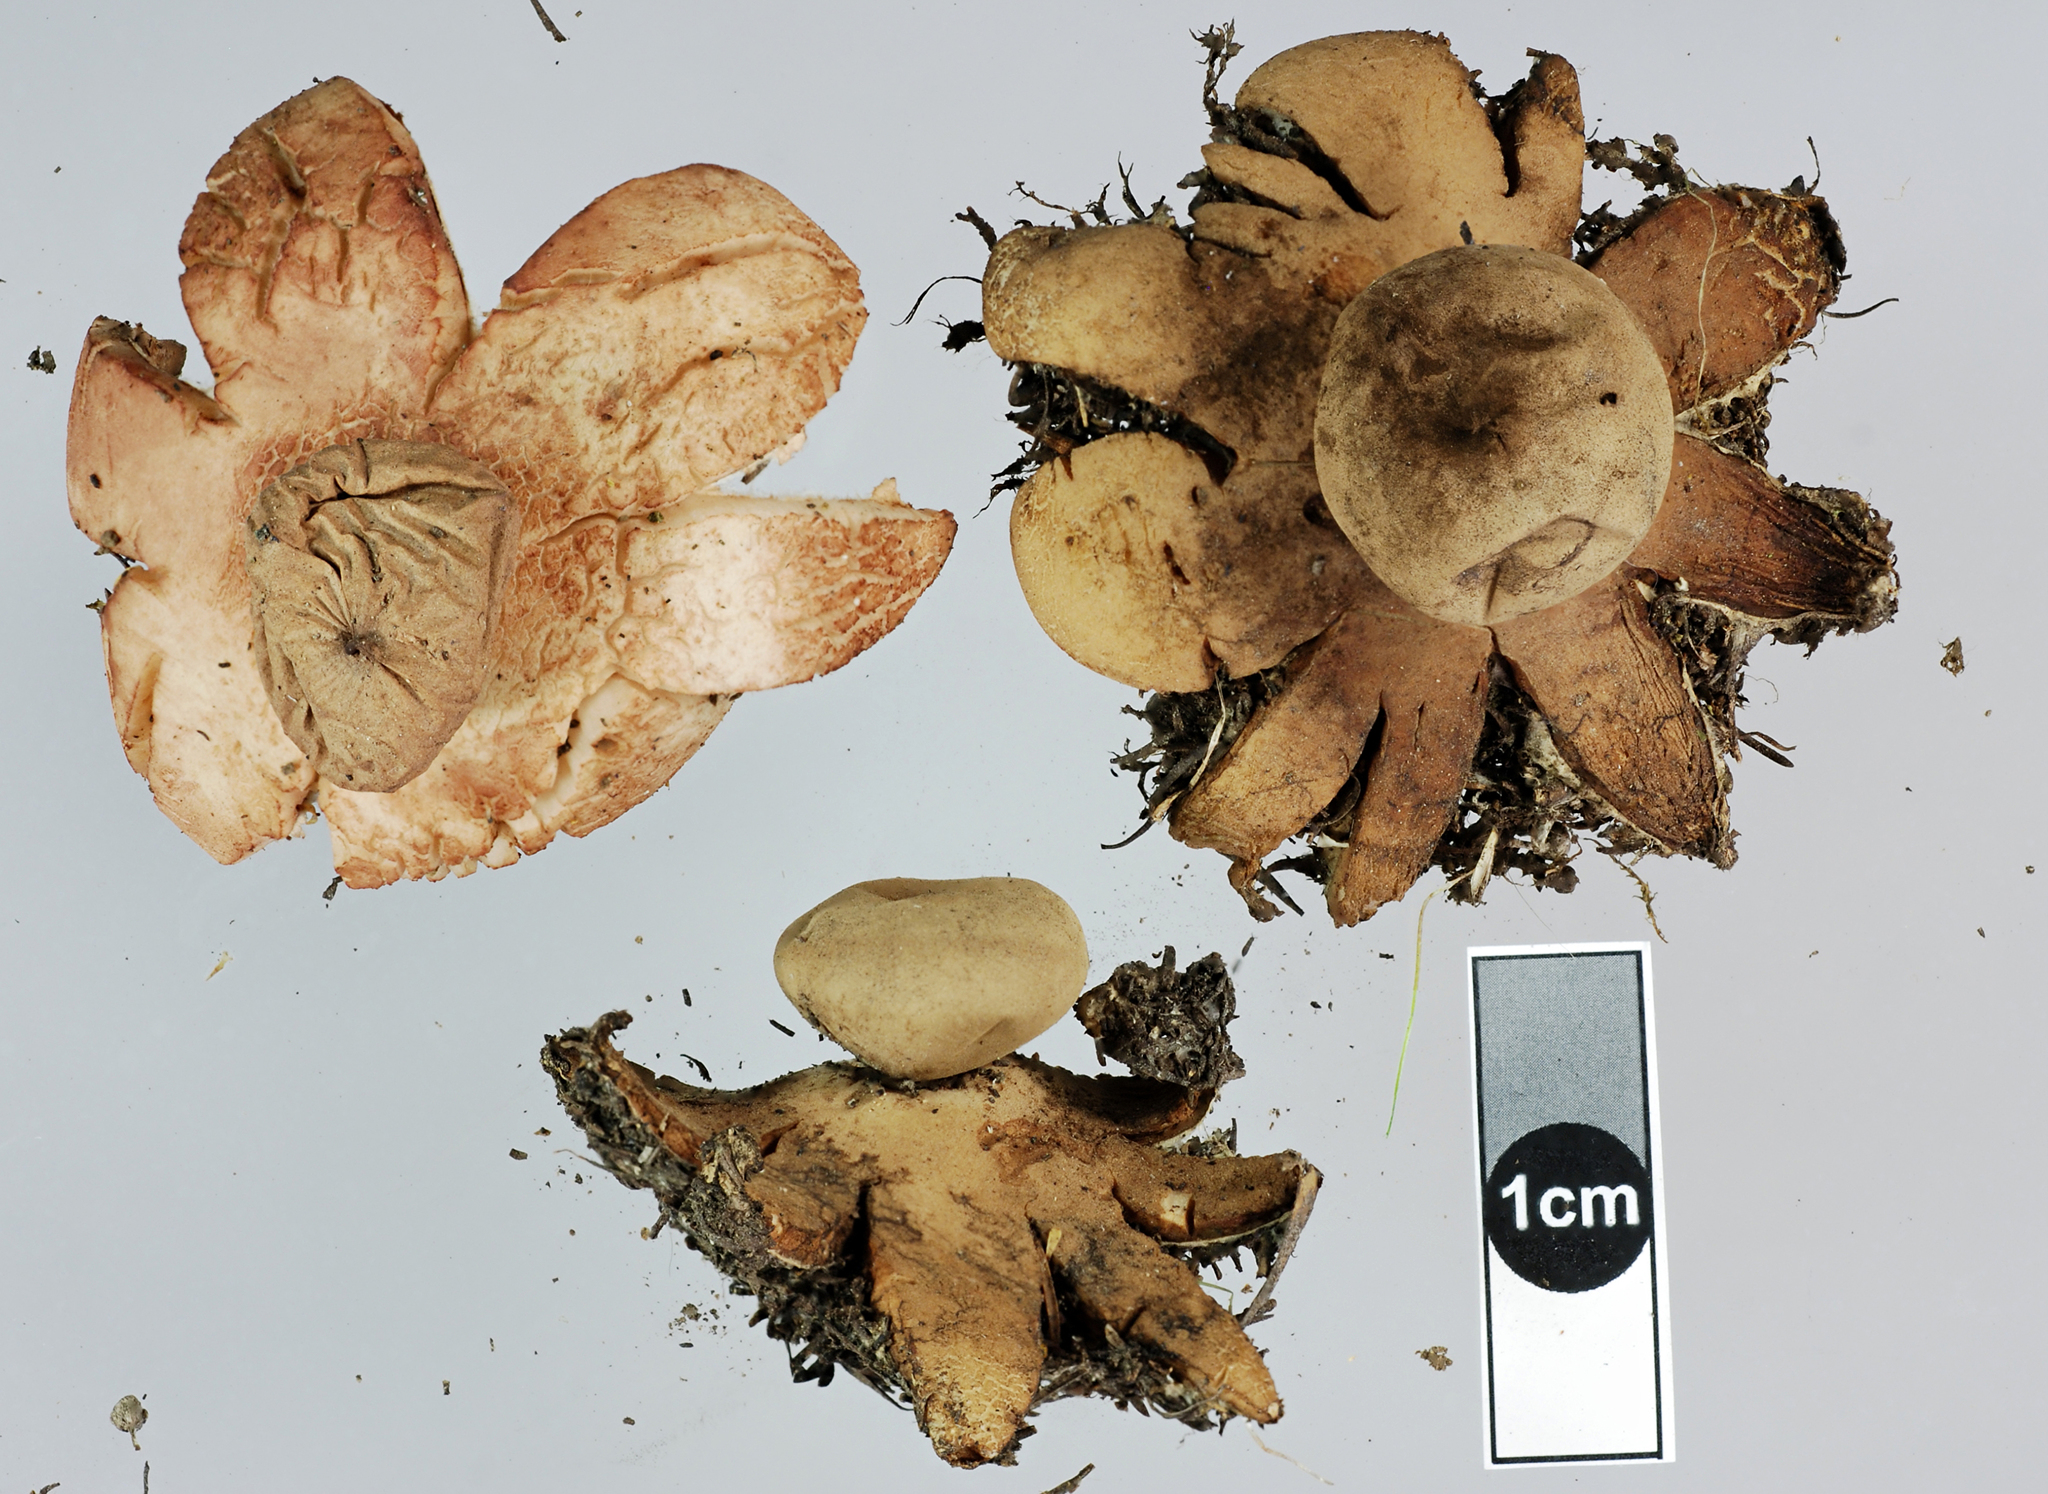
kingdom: Fungi
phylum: Basidiomycota
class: Agaricomycetes
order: Geastrales
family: Geastraceae
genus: Geastrum
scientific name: Geastrum rufescens
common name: Rosy earthstar
